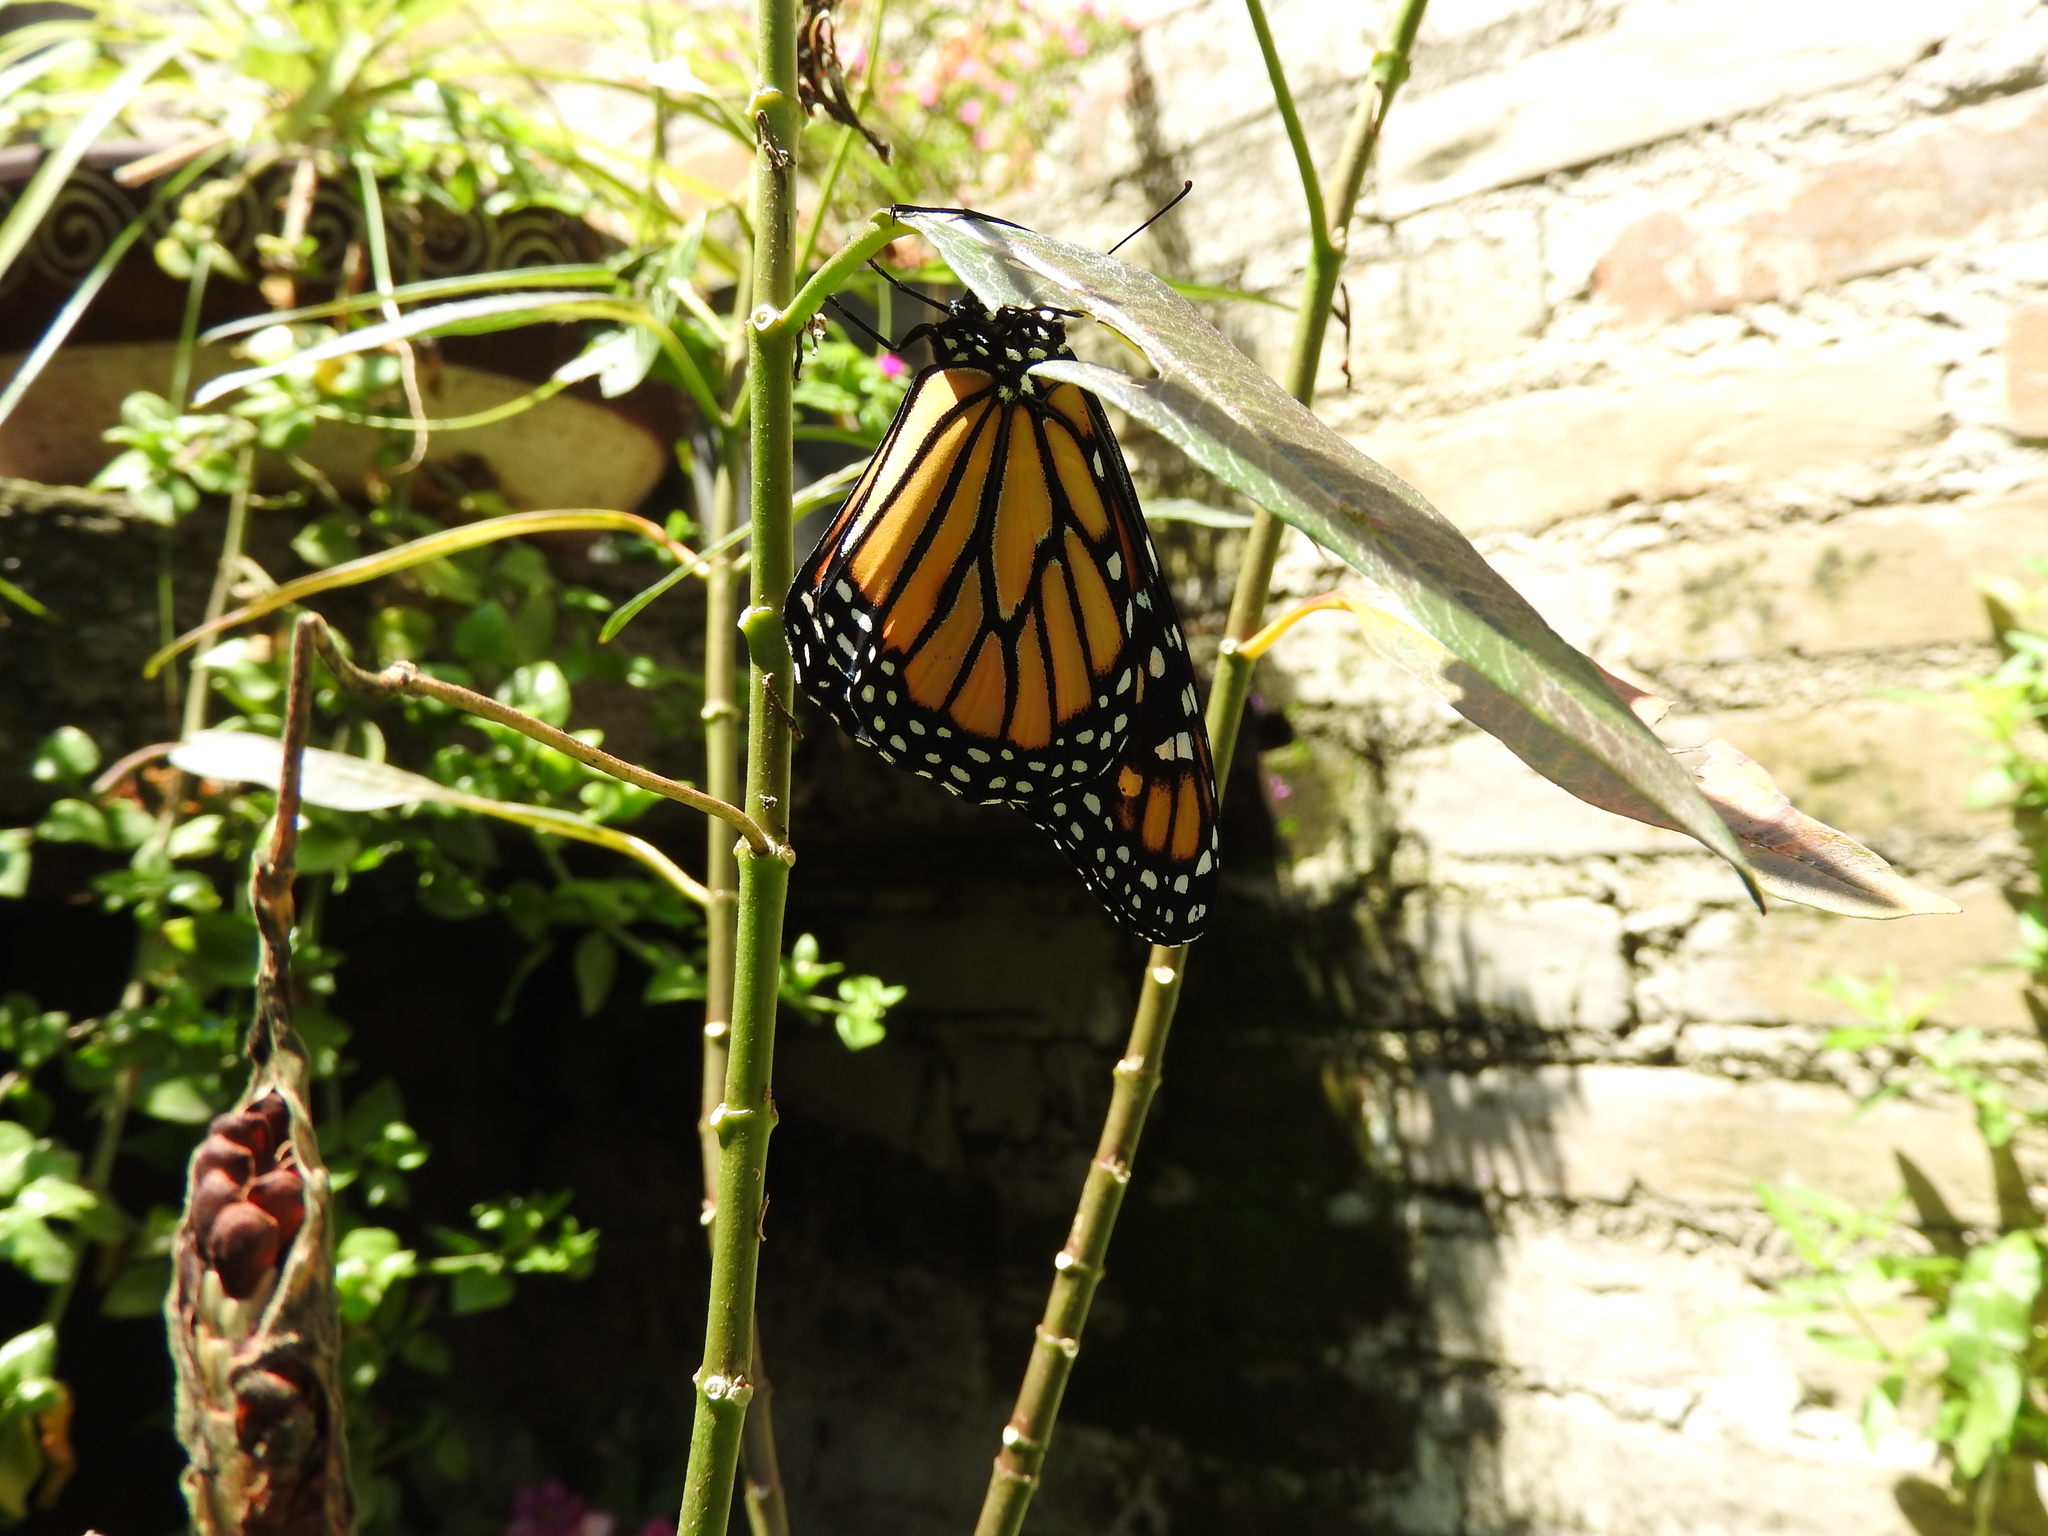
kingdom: Animalia
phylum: Arthropoda
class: Insecta
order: Lepidoptera
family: Nymphalidae
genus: Danaus
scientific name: Danaus plexippus
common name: Monarch
